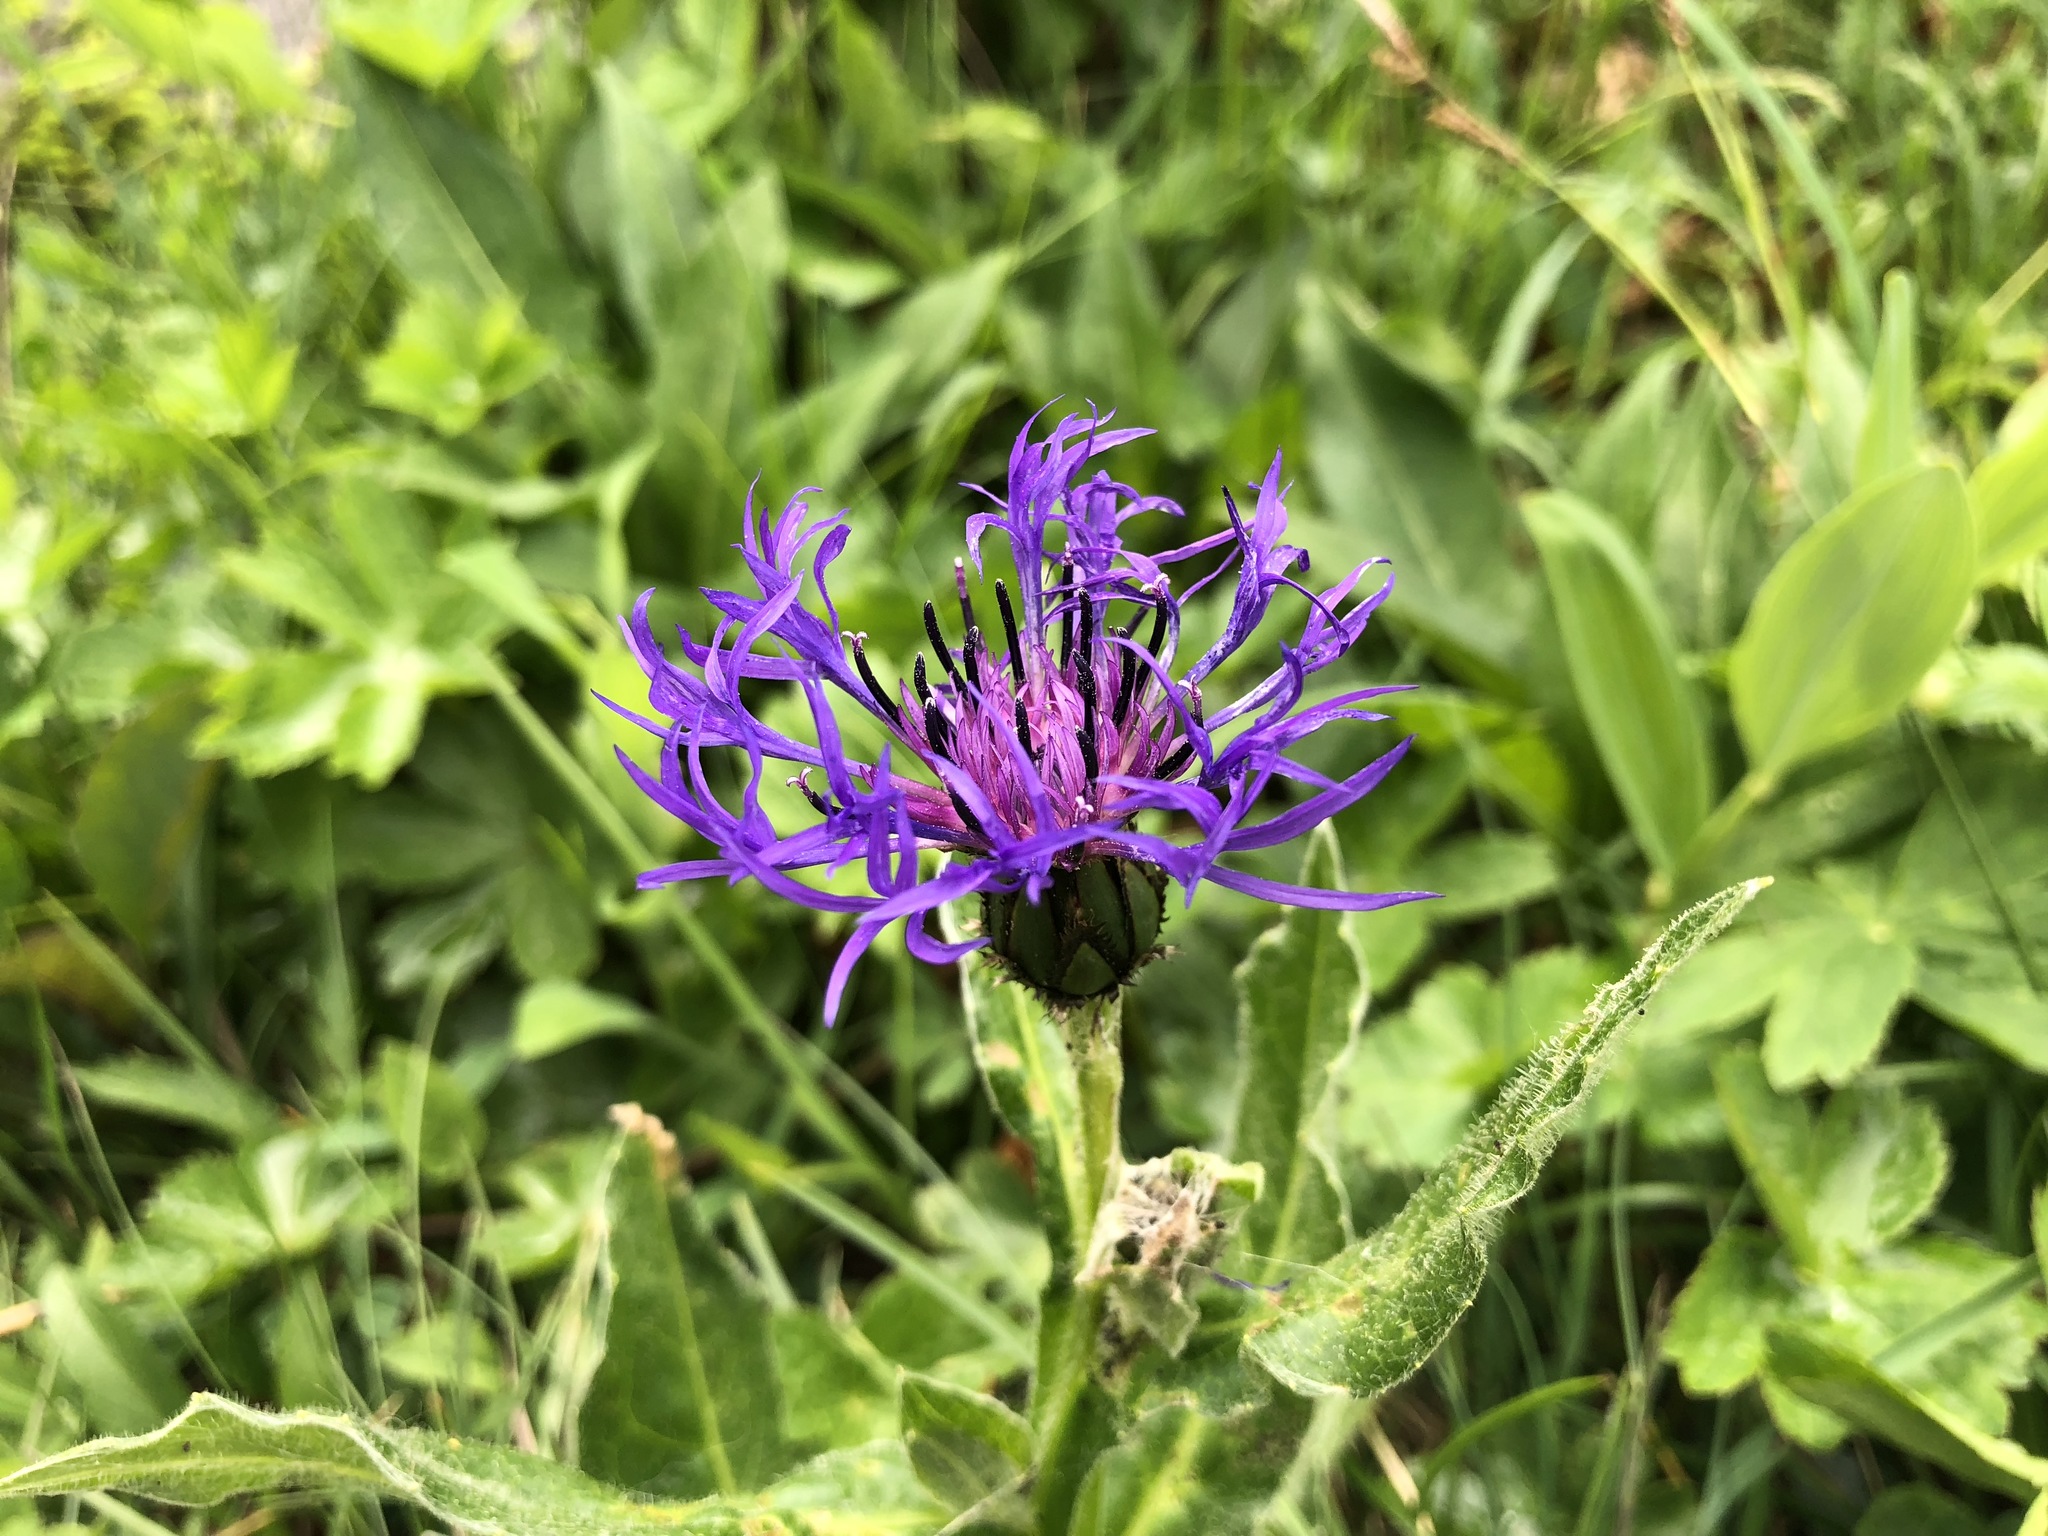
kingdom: Plantae
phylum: Tracheophyta
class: Magnoliopsida
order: Asterales
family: Asteraceae
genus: Centaurea
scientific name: Centaurea montana
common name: Perennial cornflower
